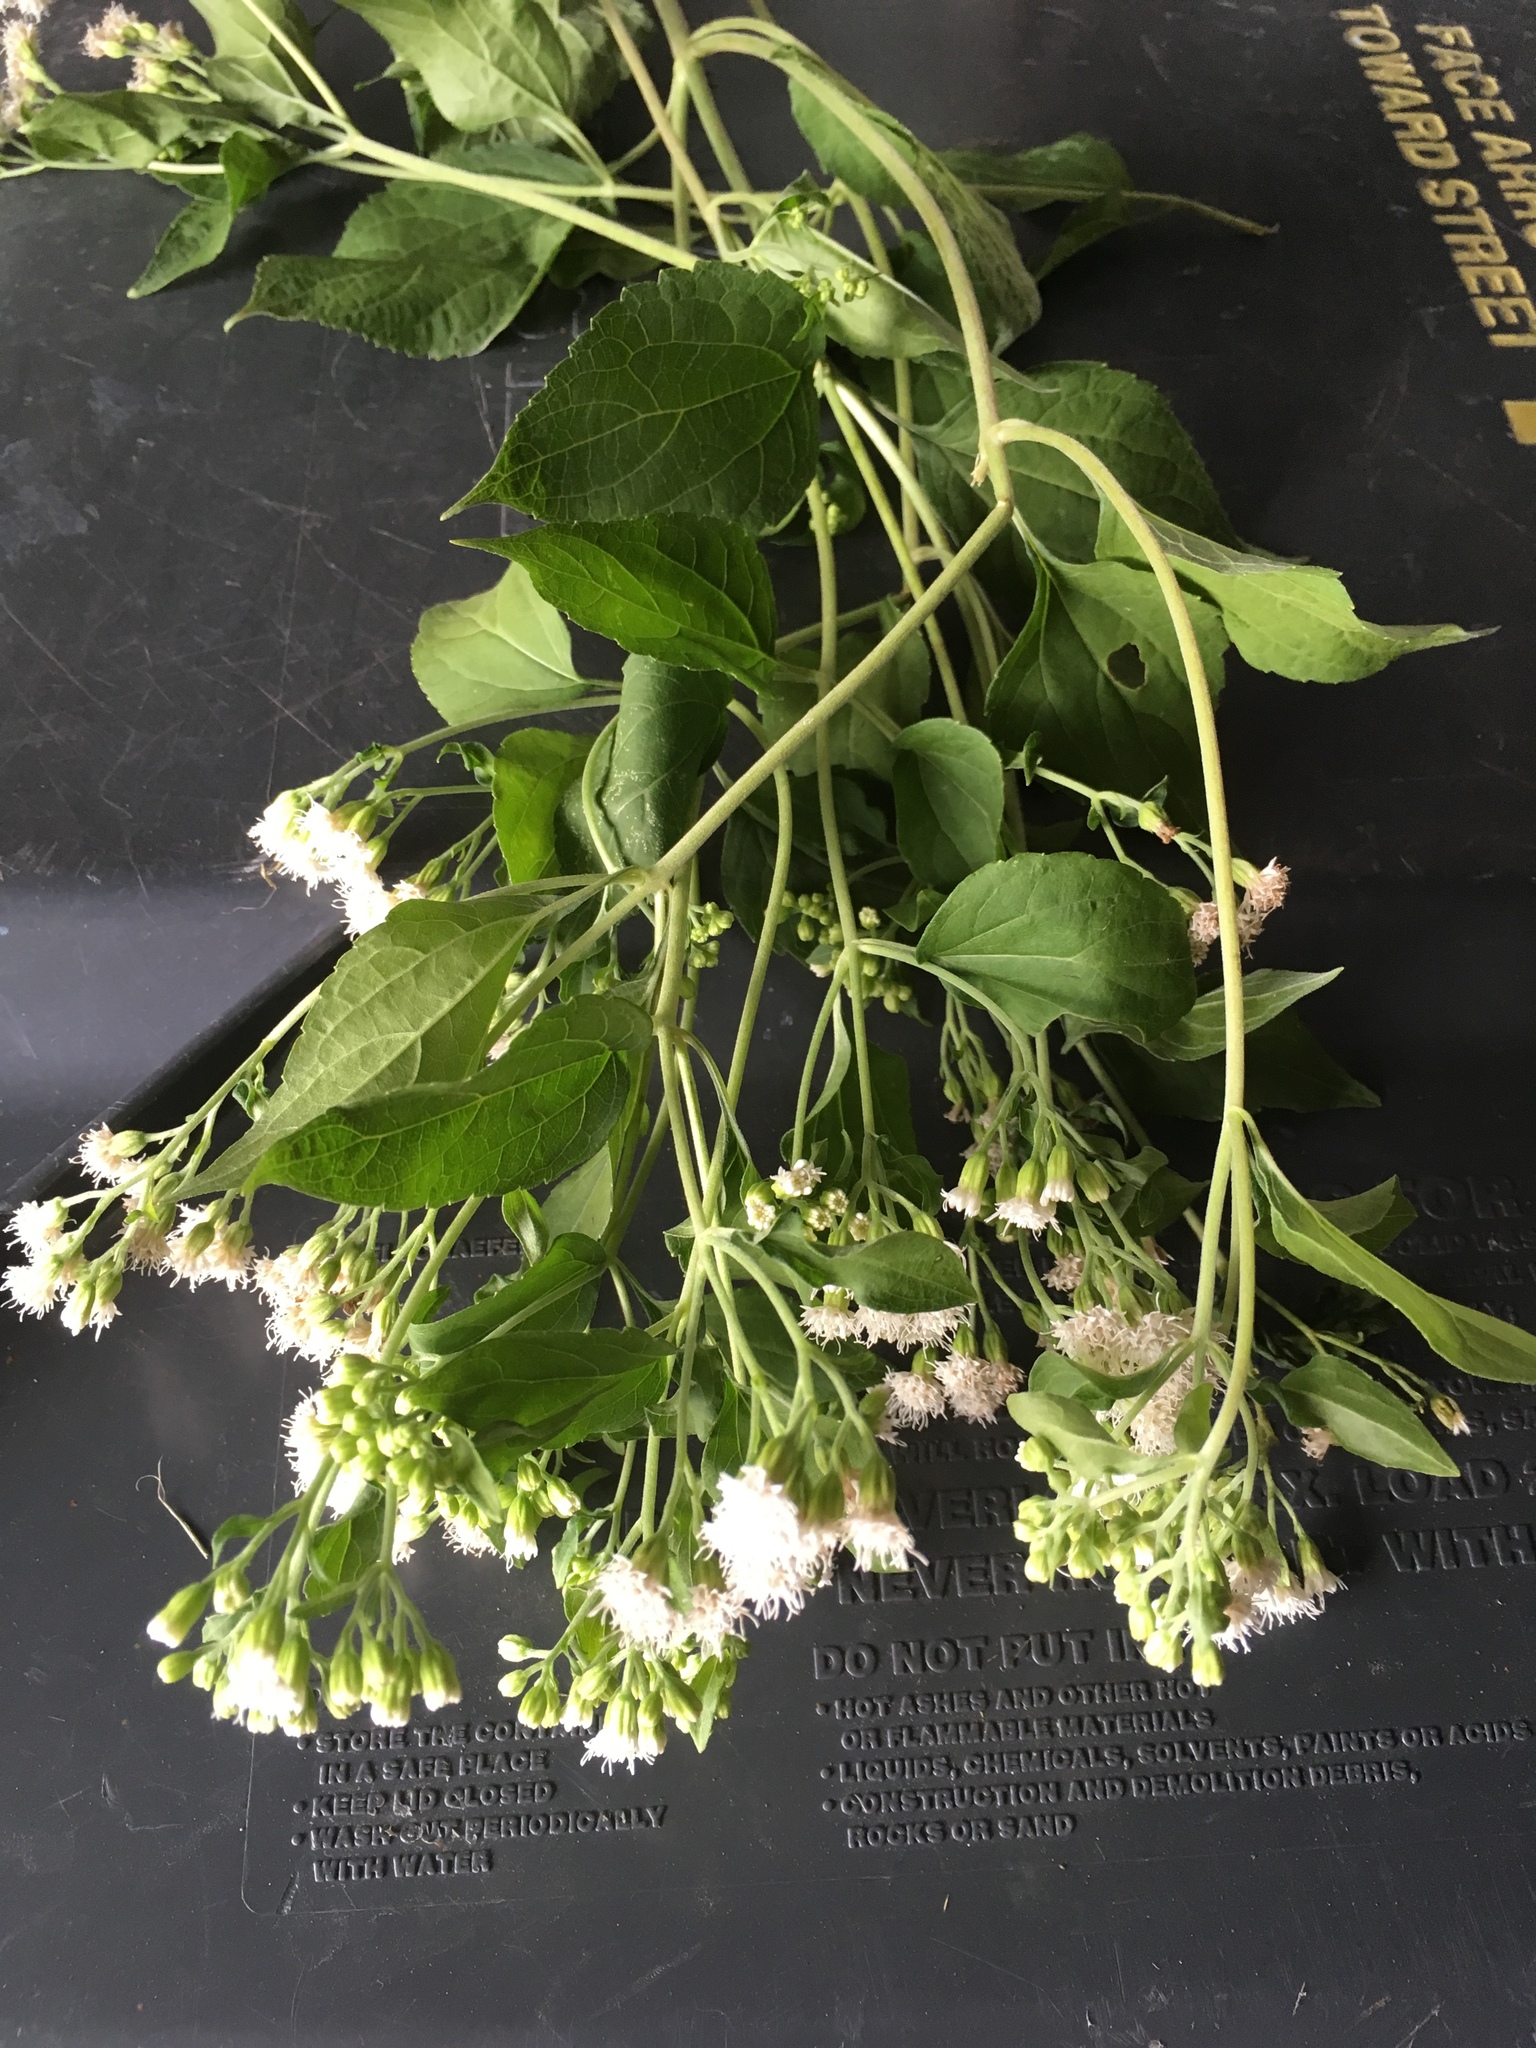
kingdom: Plantae
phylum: Tracheophyta
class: Magnoliopsida
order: Asterales
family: Asteraceae
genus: Ageratina
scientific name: Ageratina altissima
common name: White snakeroot
